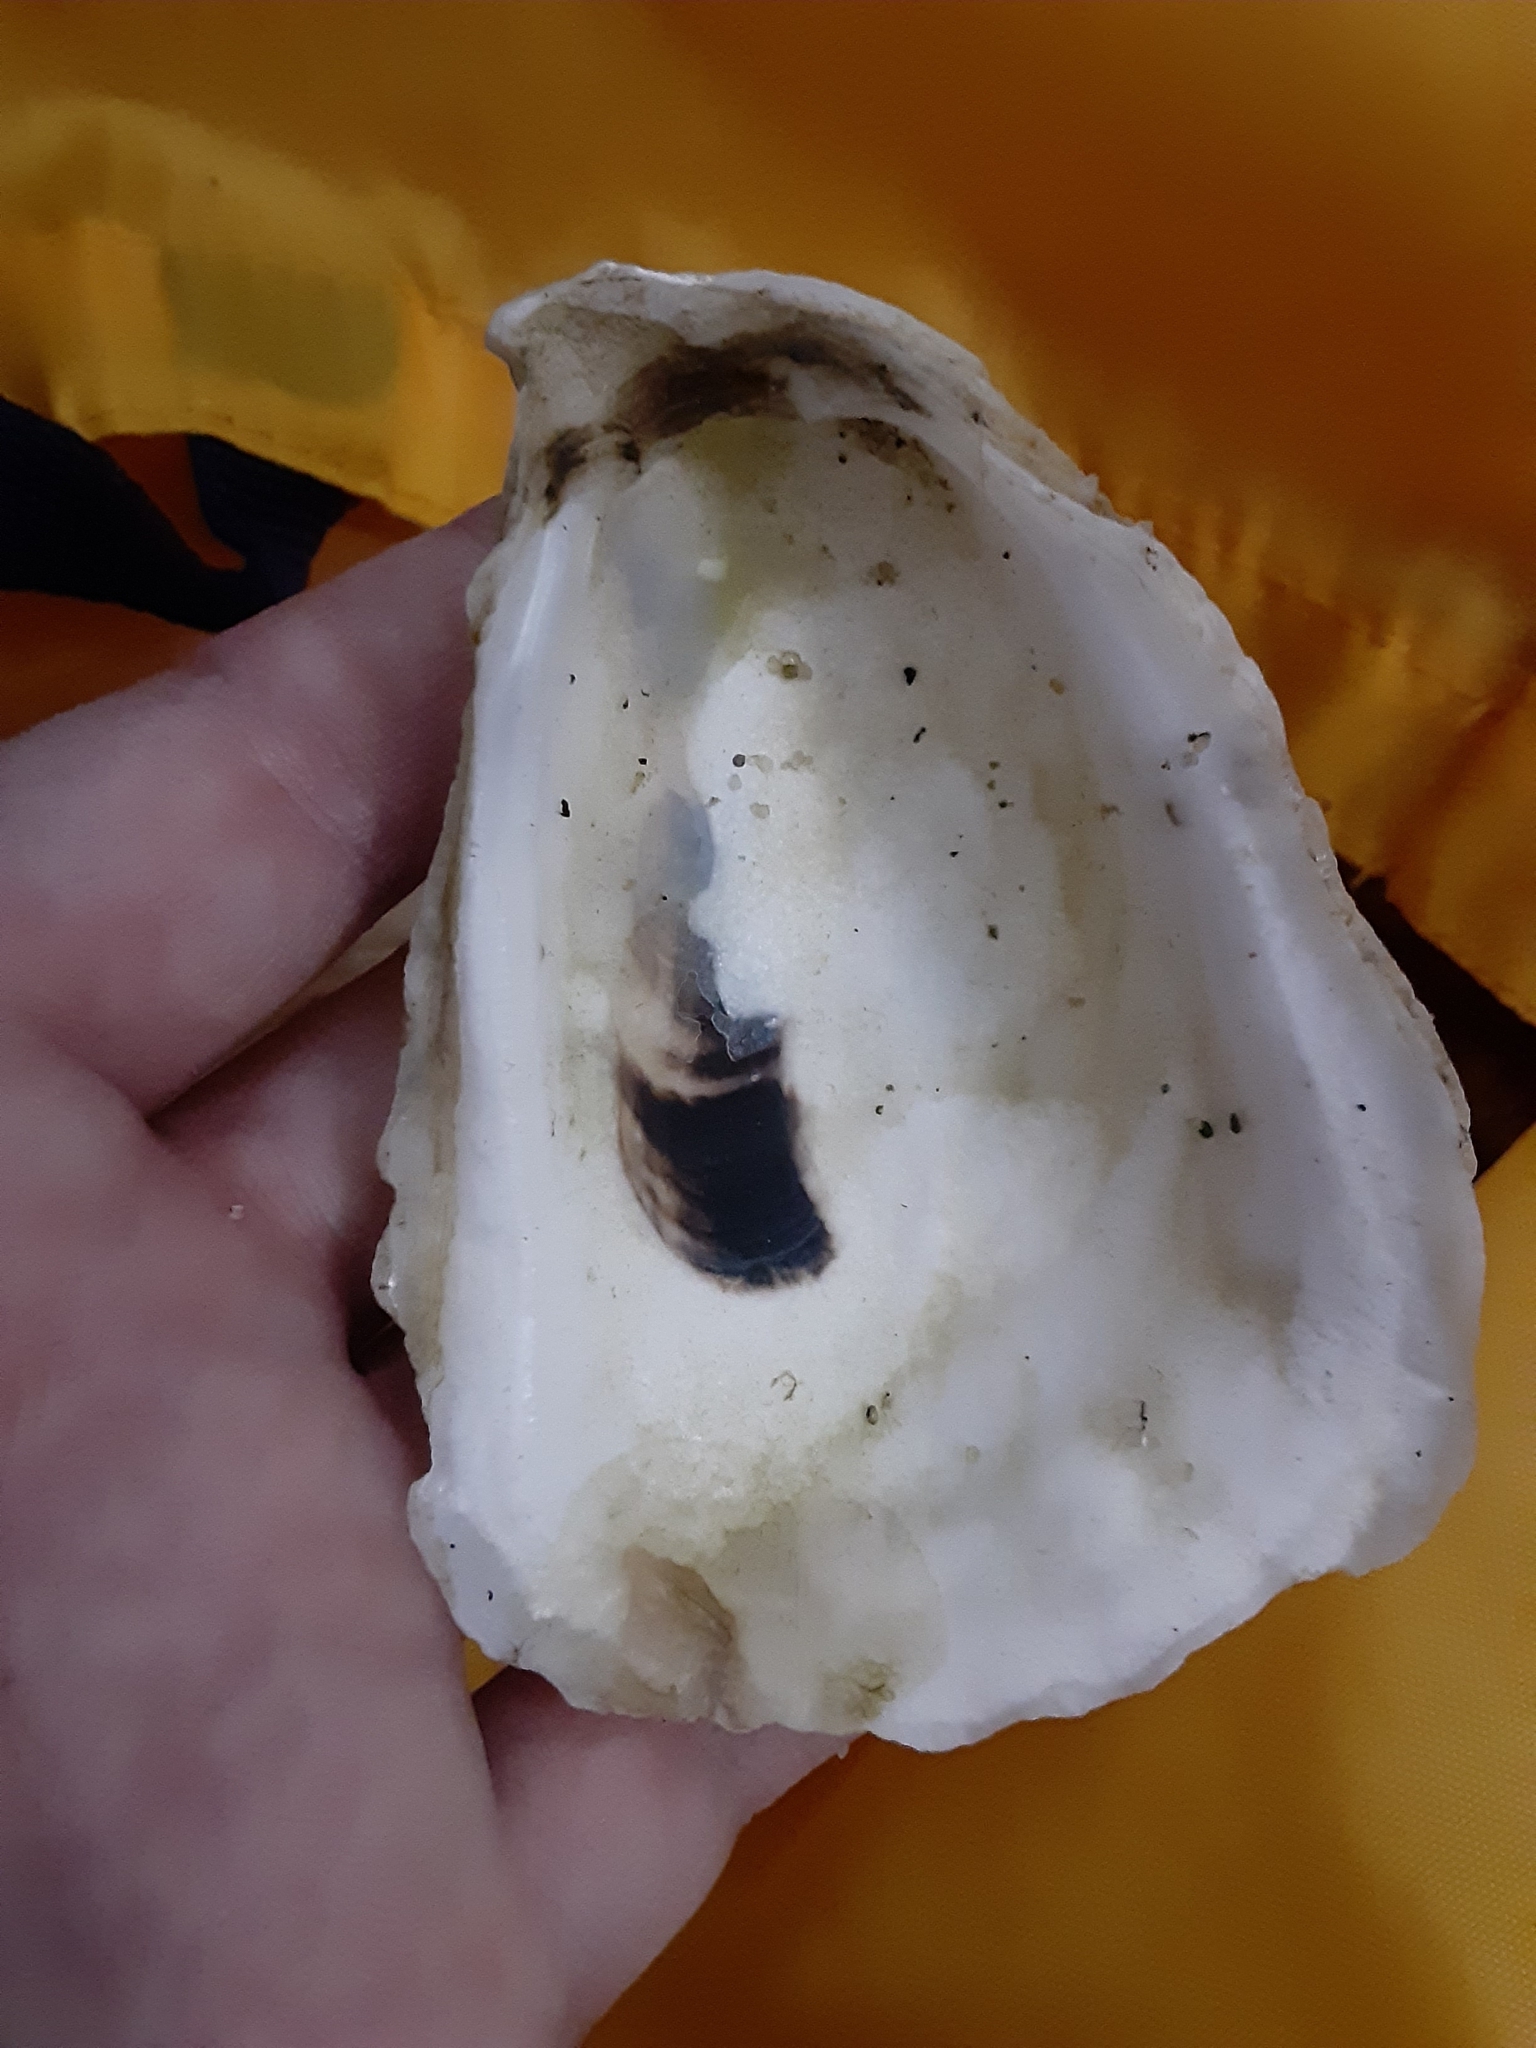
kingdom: Animalia
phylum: Mollusca
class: Bivalvia
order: Ostreida
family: Ostreidae
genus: Crassostrea
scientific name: Crassostrea virginica
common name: American oyster
